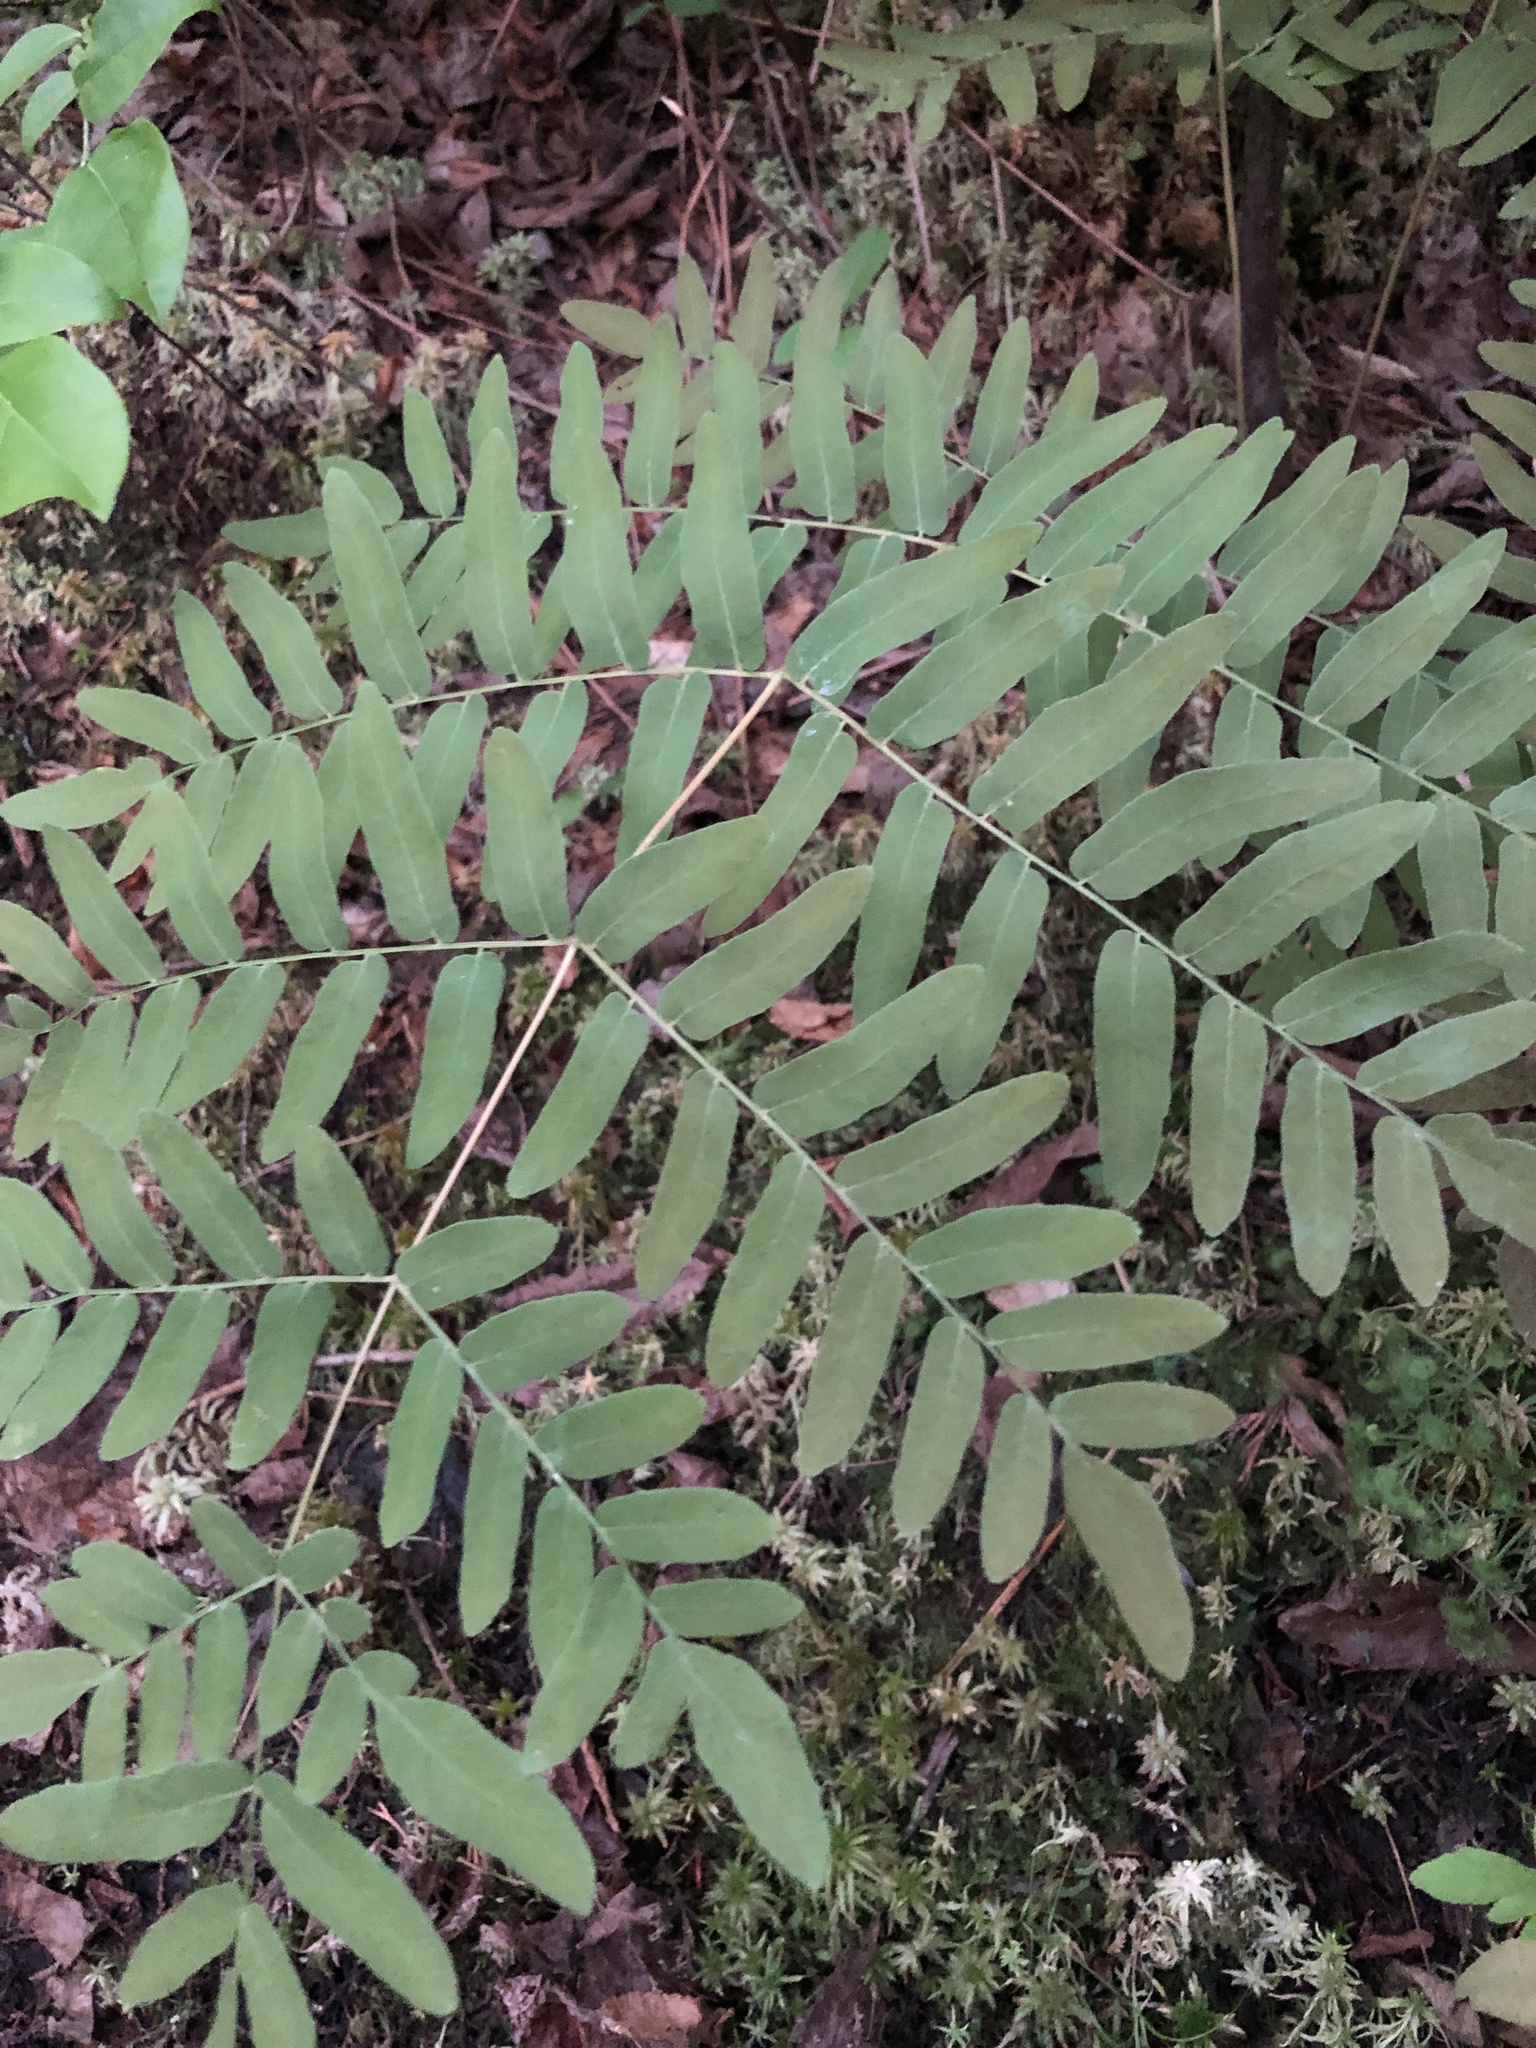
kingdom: Plantae
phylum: Tracheophyta
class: Polypodiopsida
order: Osmundales
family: Osmundaceae
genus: Osmunda
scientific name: Osmunda spectabilis
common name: American royal fern
